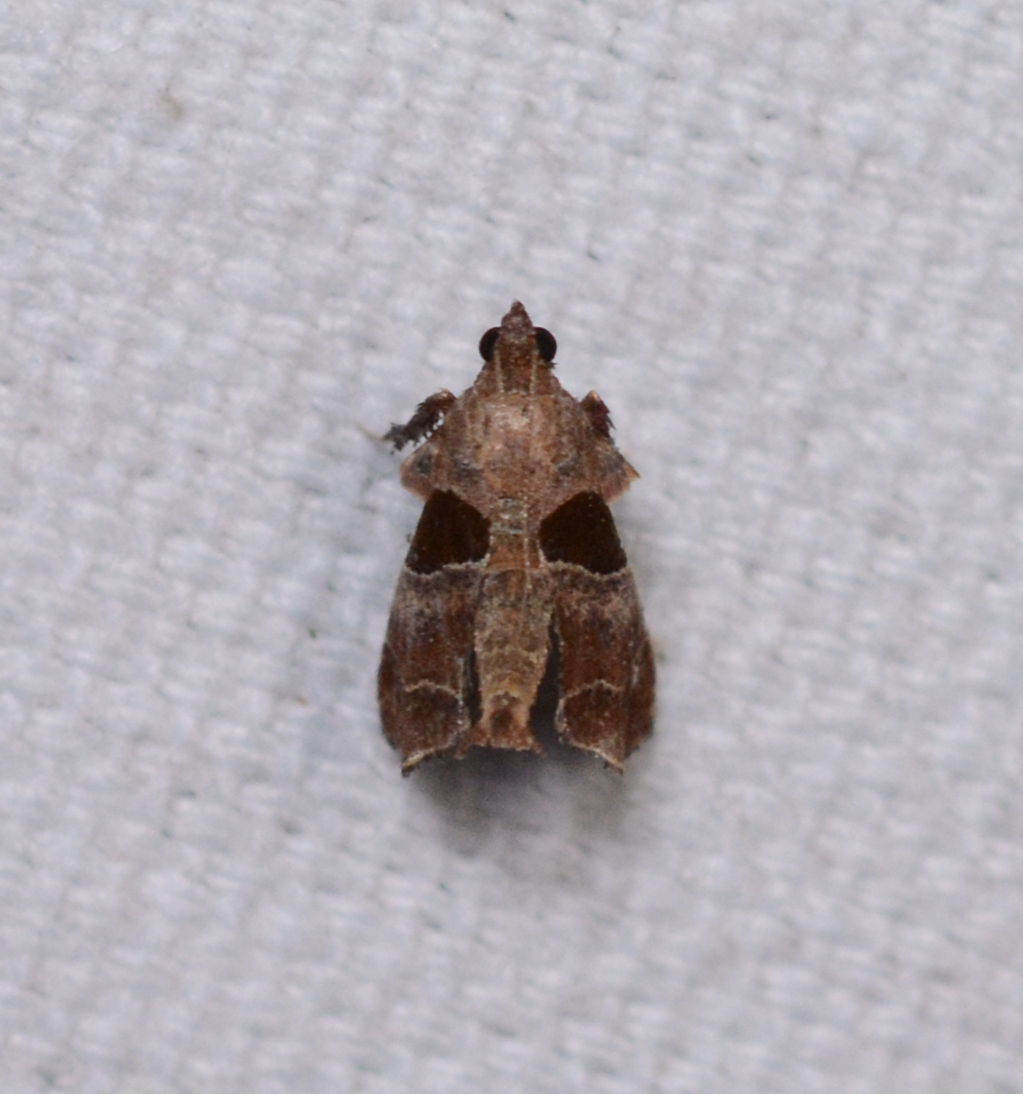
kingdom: Animalia
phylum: Arthropoda
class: Insecta
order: Lepidoptera
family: Pyralidae
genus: Tosale
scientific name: Tosale oviplagalis
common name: Dimorphic tosale moth
